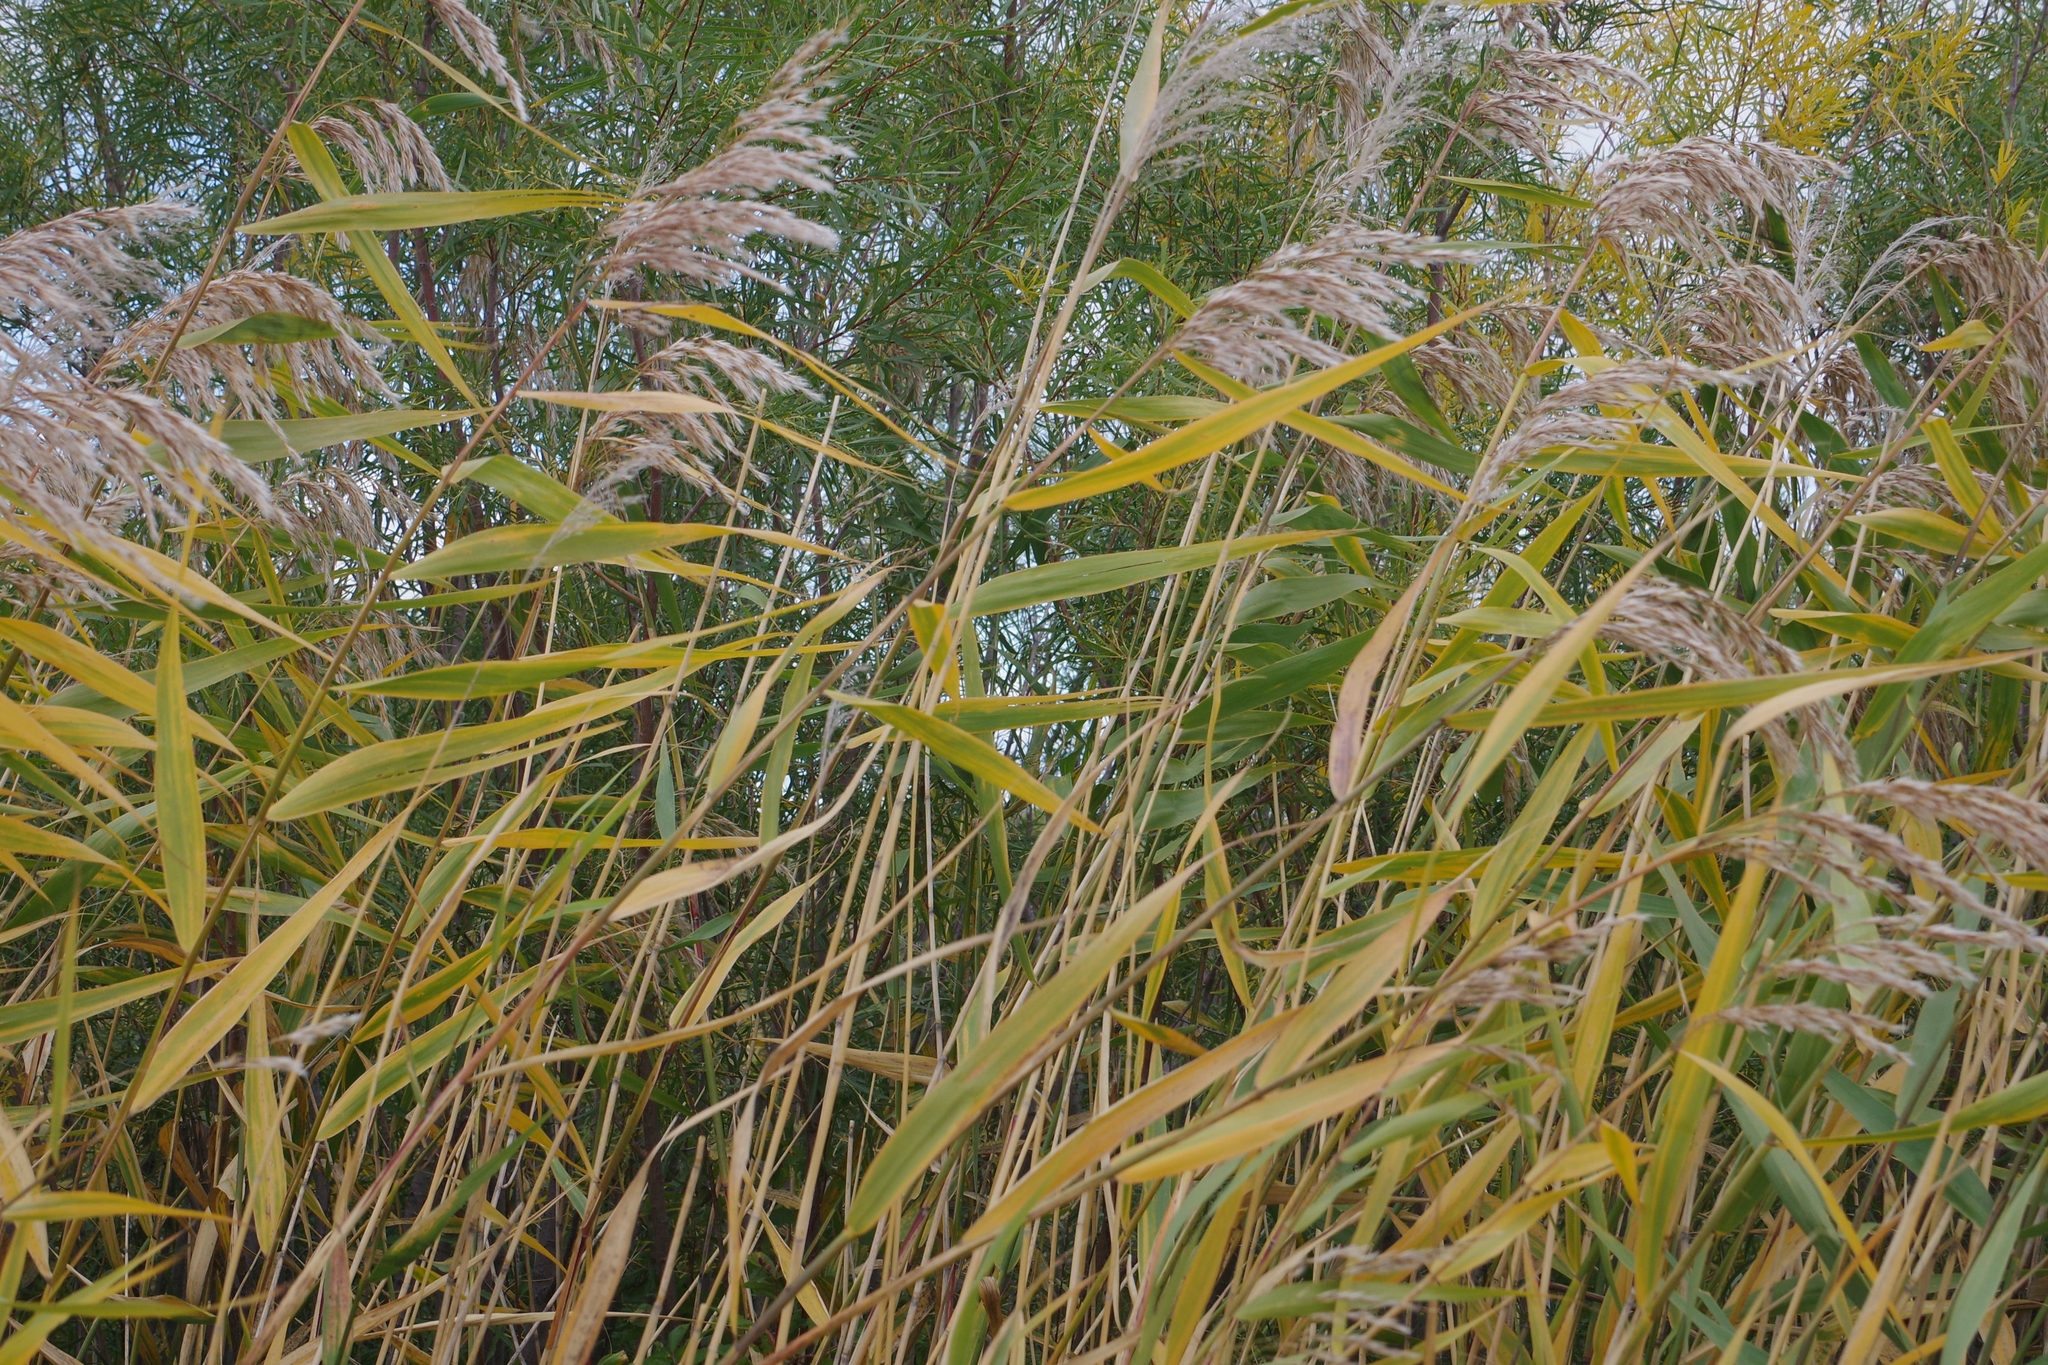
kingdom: Plantae
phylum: Tracheophyta
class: Liliopsida
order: Poales
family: Poaceae
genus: Phragmites
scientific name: Phragmites australis
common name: Common reed
